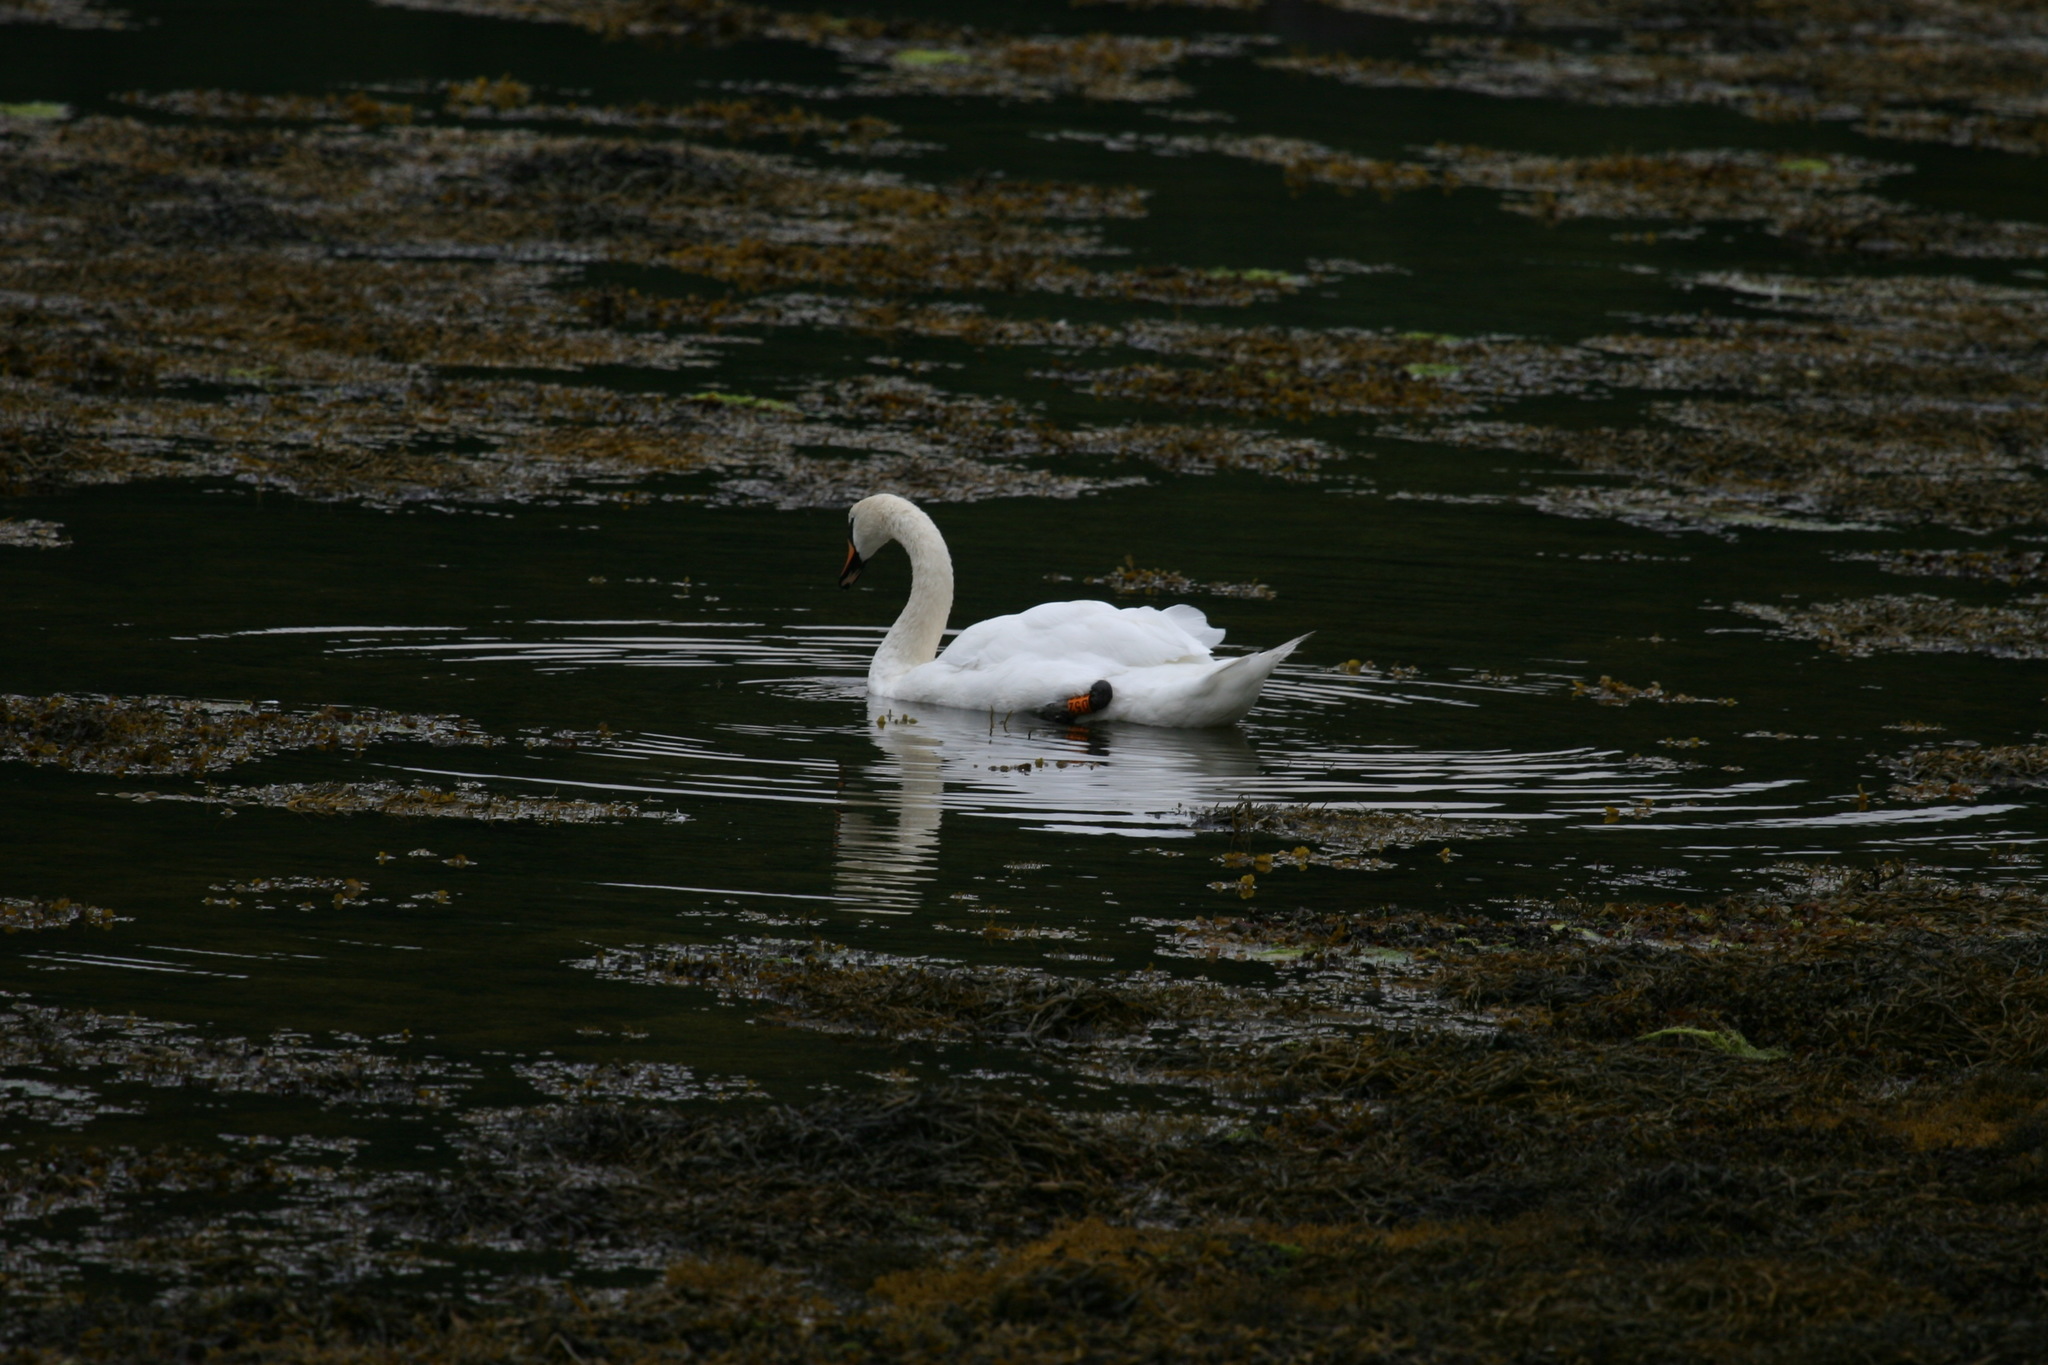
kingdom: Animalia
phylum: Chordata
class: Aves
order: Anseriformes
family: Anatidae
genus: Cygnus
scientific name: Cygnus olor
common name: Mute swan
